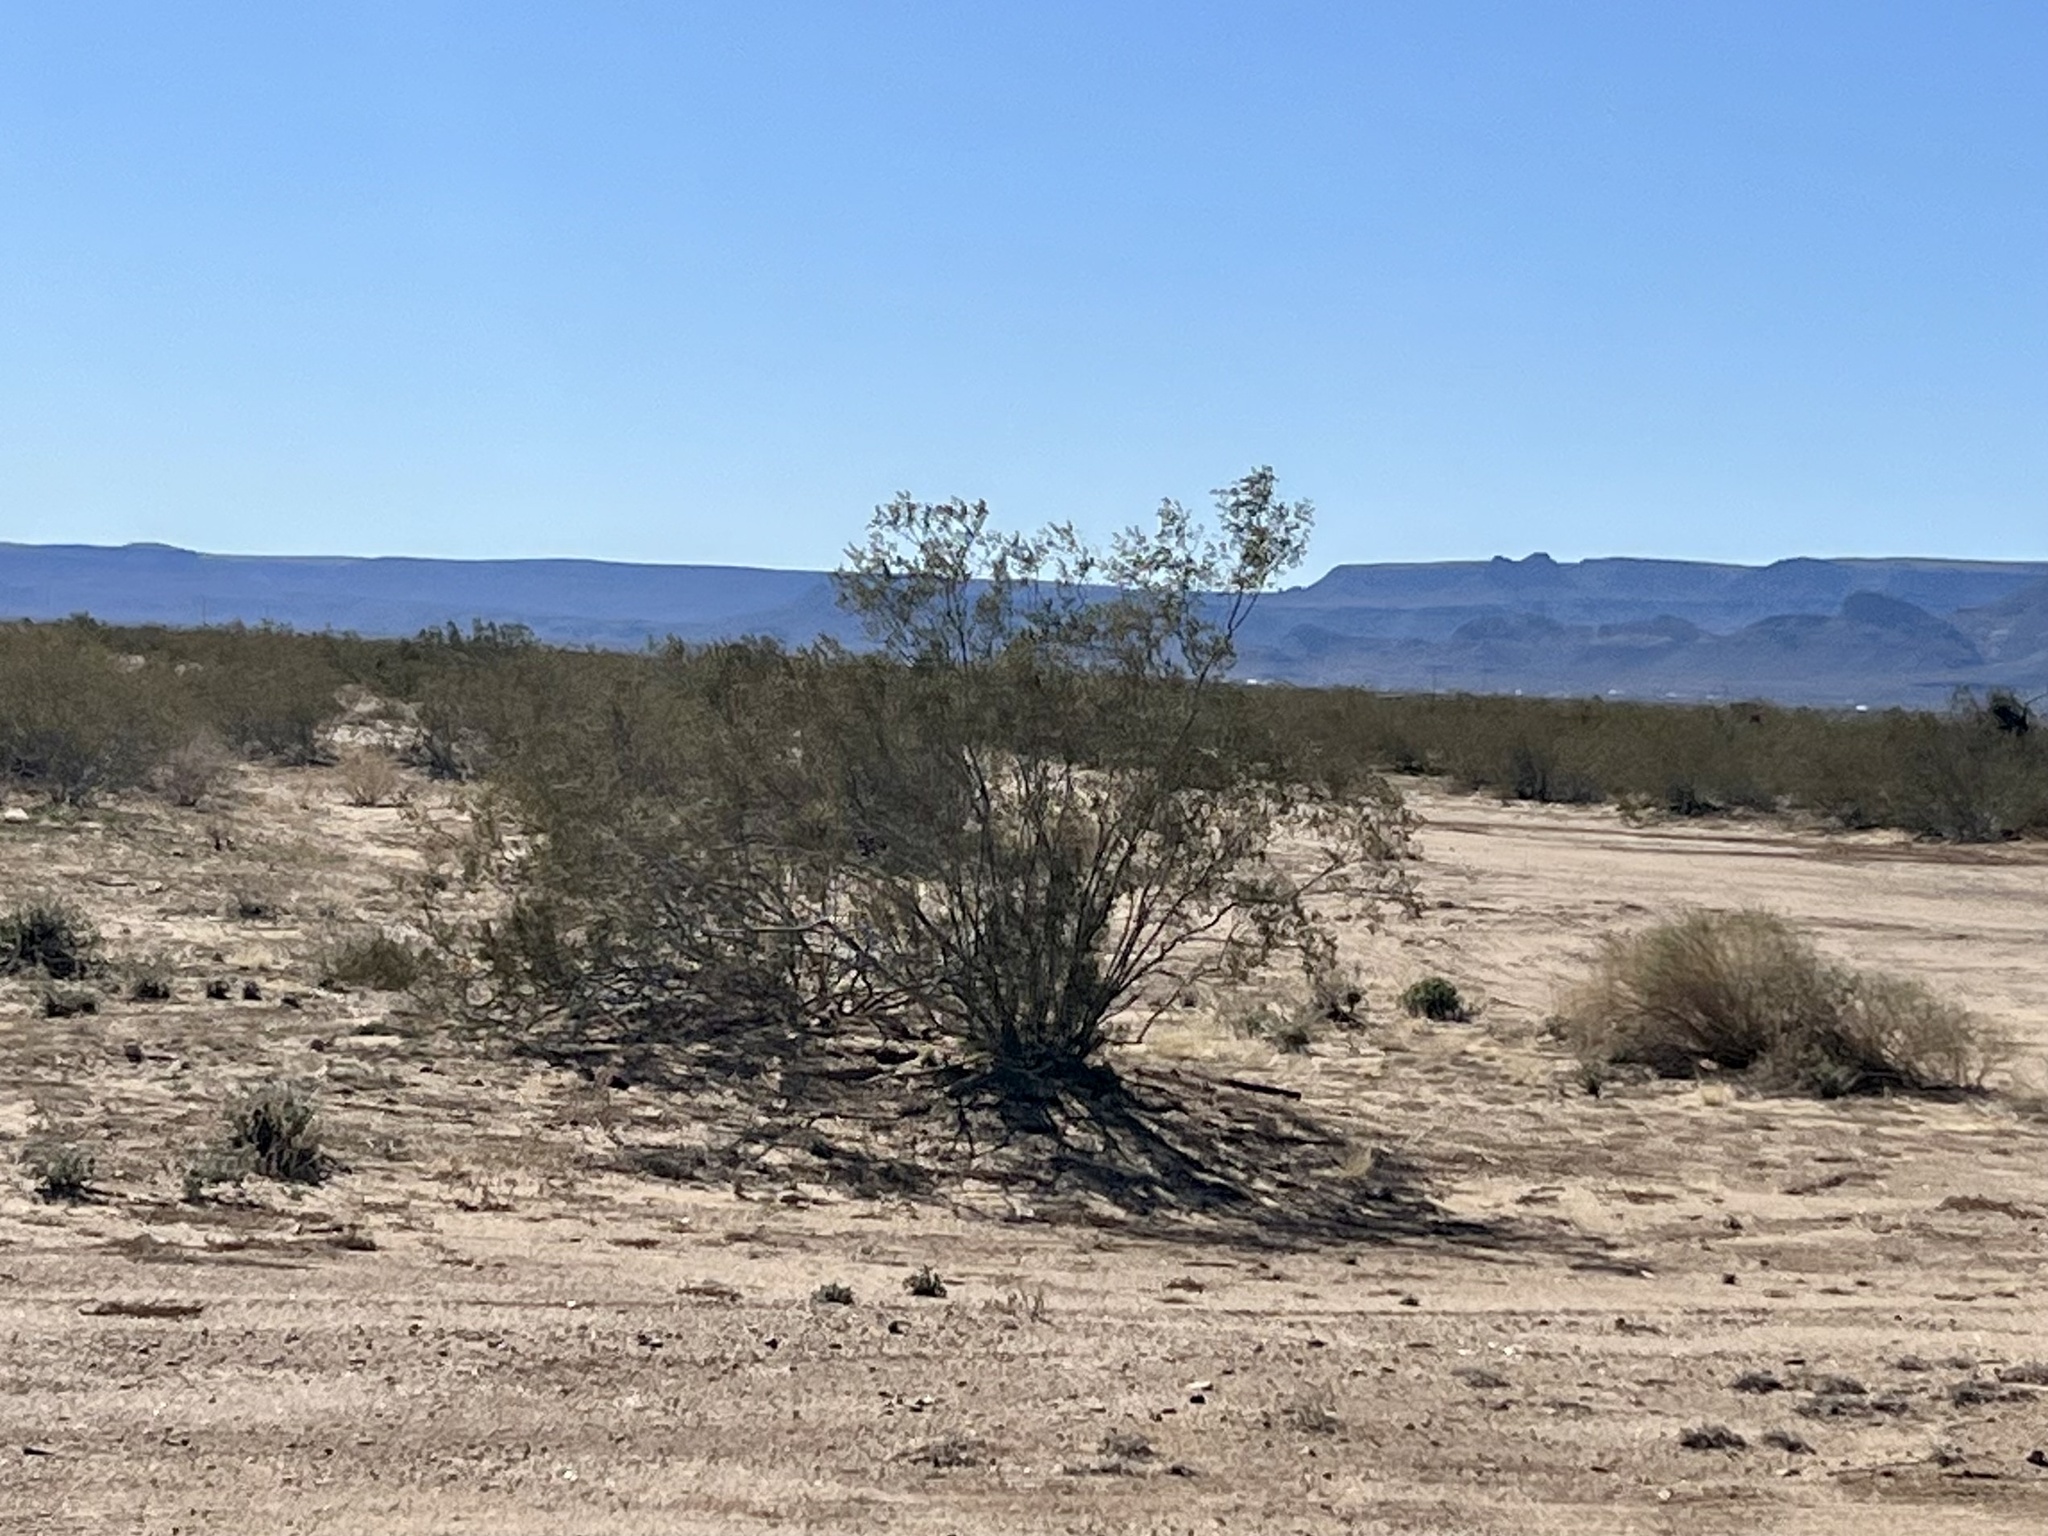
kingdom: Plantae
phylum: Tracheophyta
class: Magnoliopsida
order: Zygophyllales
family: Zygophyllaceae
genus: Larrea
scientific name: Larrea tridentata
